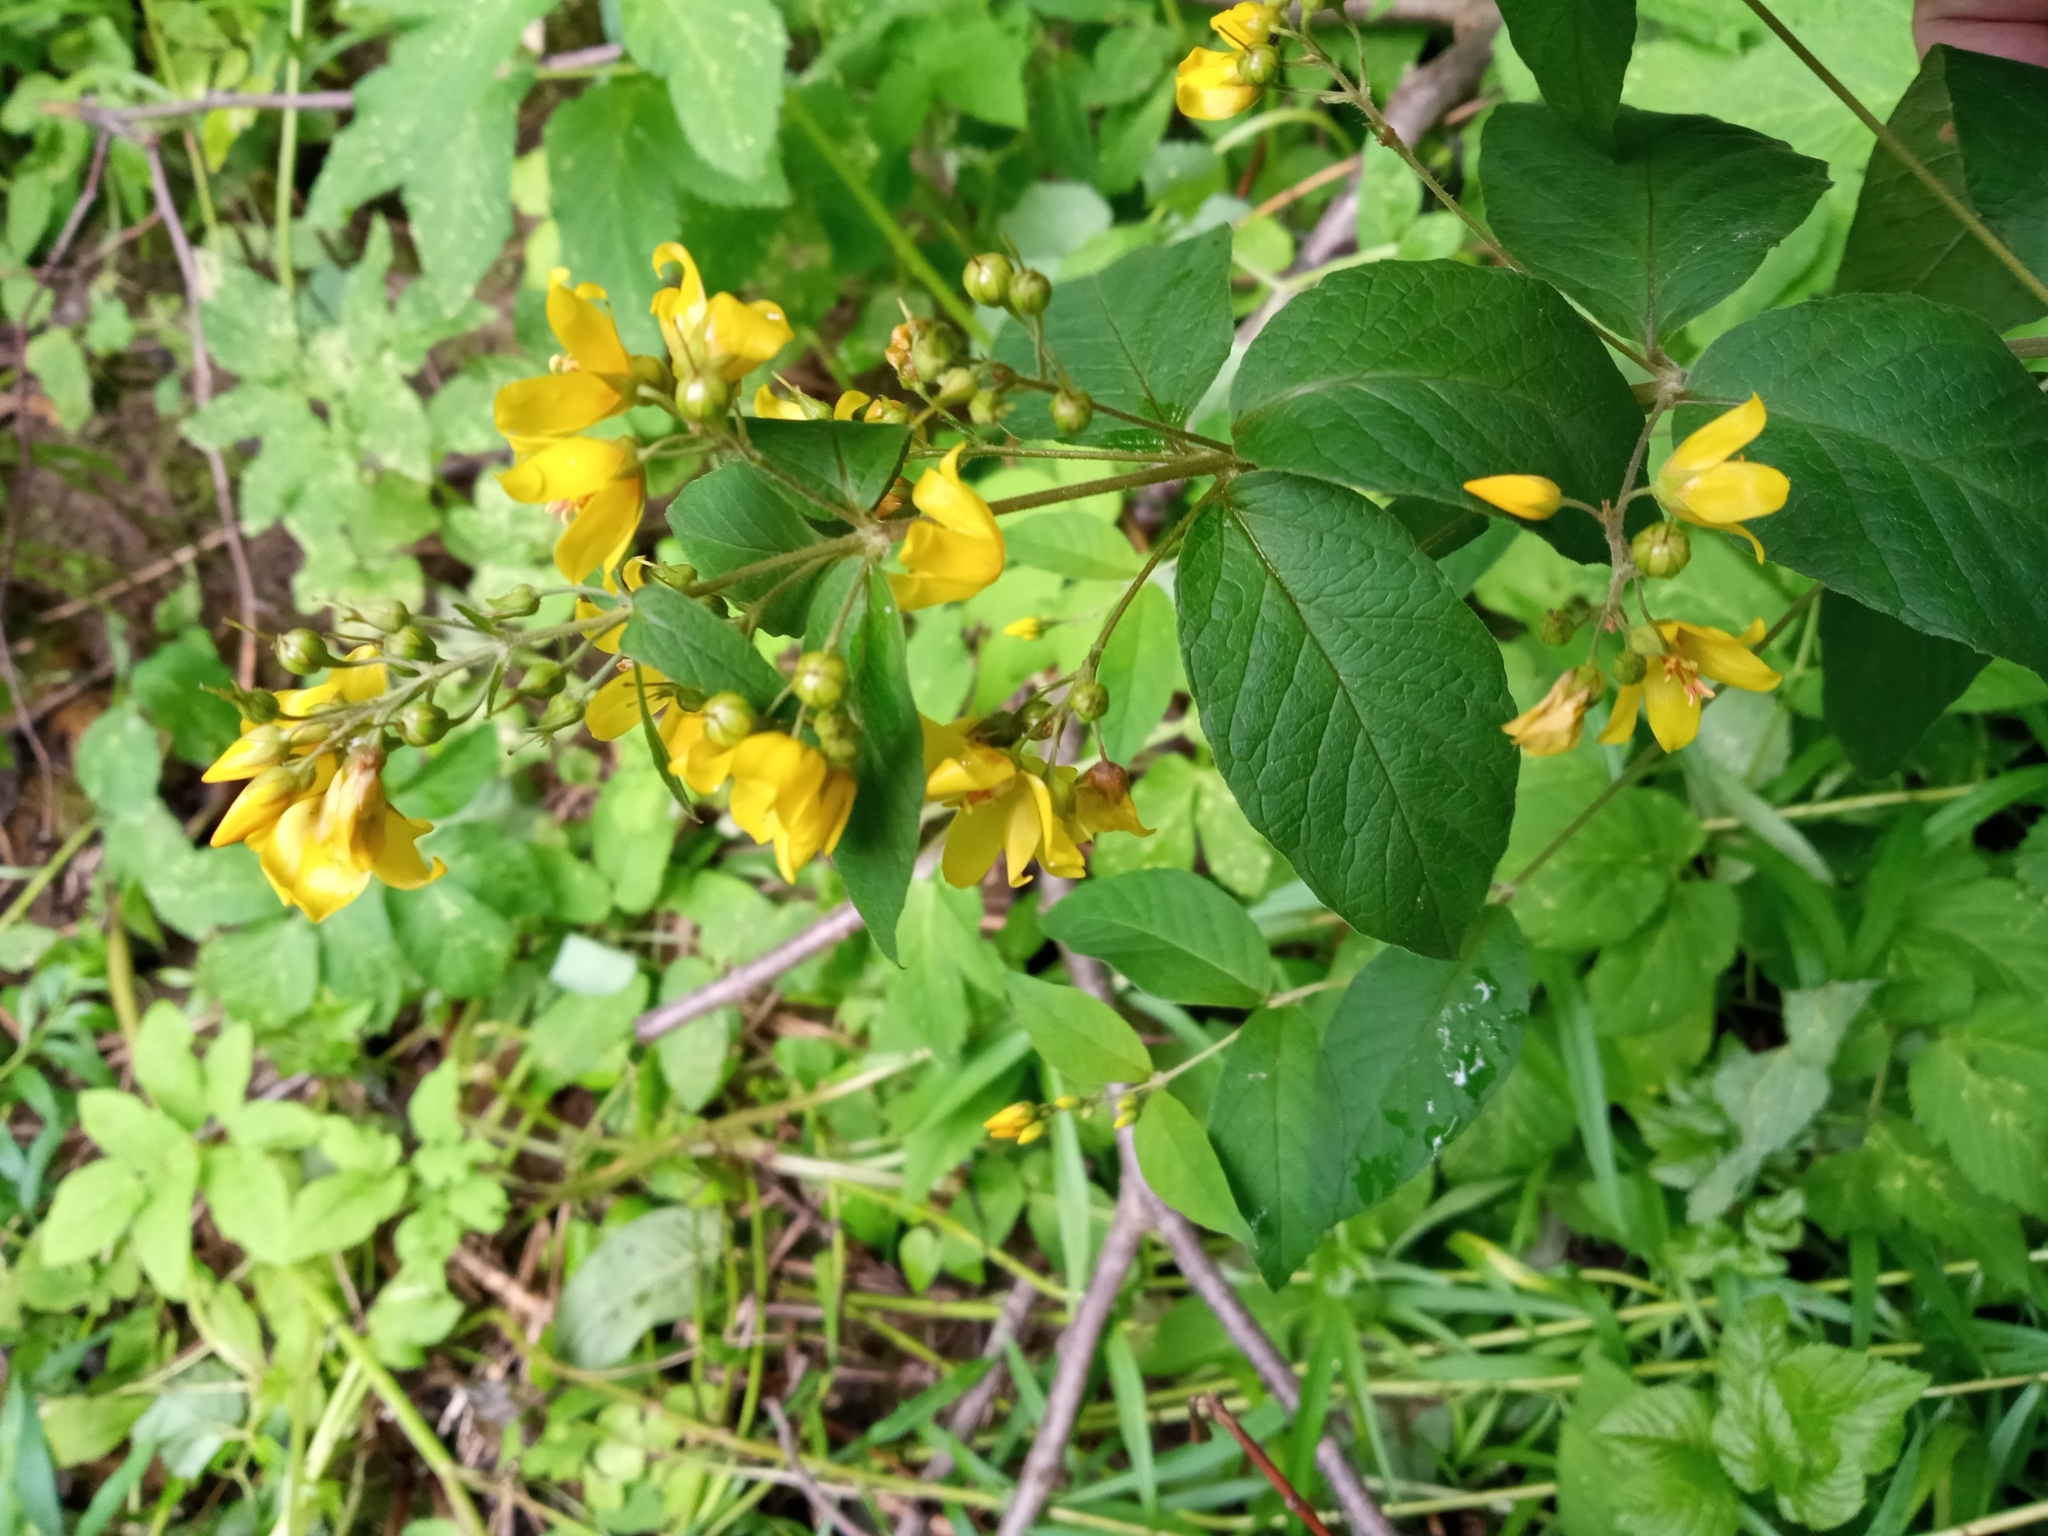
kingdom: Plantae
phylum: Tracheophyta
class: Magnoliopsida
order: Ericales
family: Primulaceae
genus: Lysimachia
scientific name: Lysimachia vulgaris
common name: Yellow loosestrife
